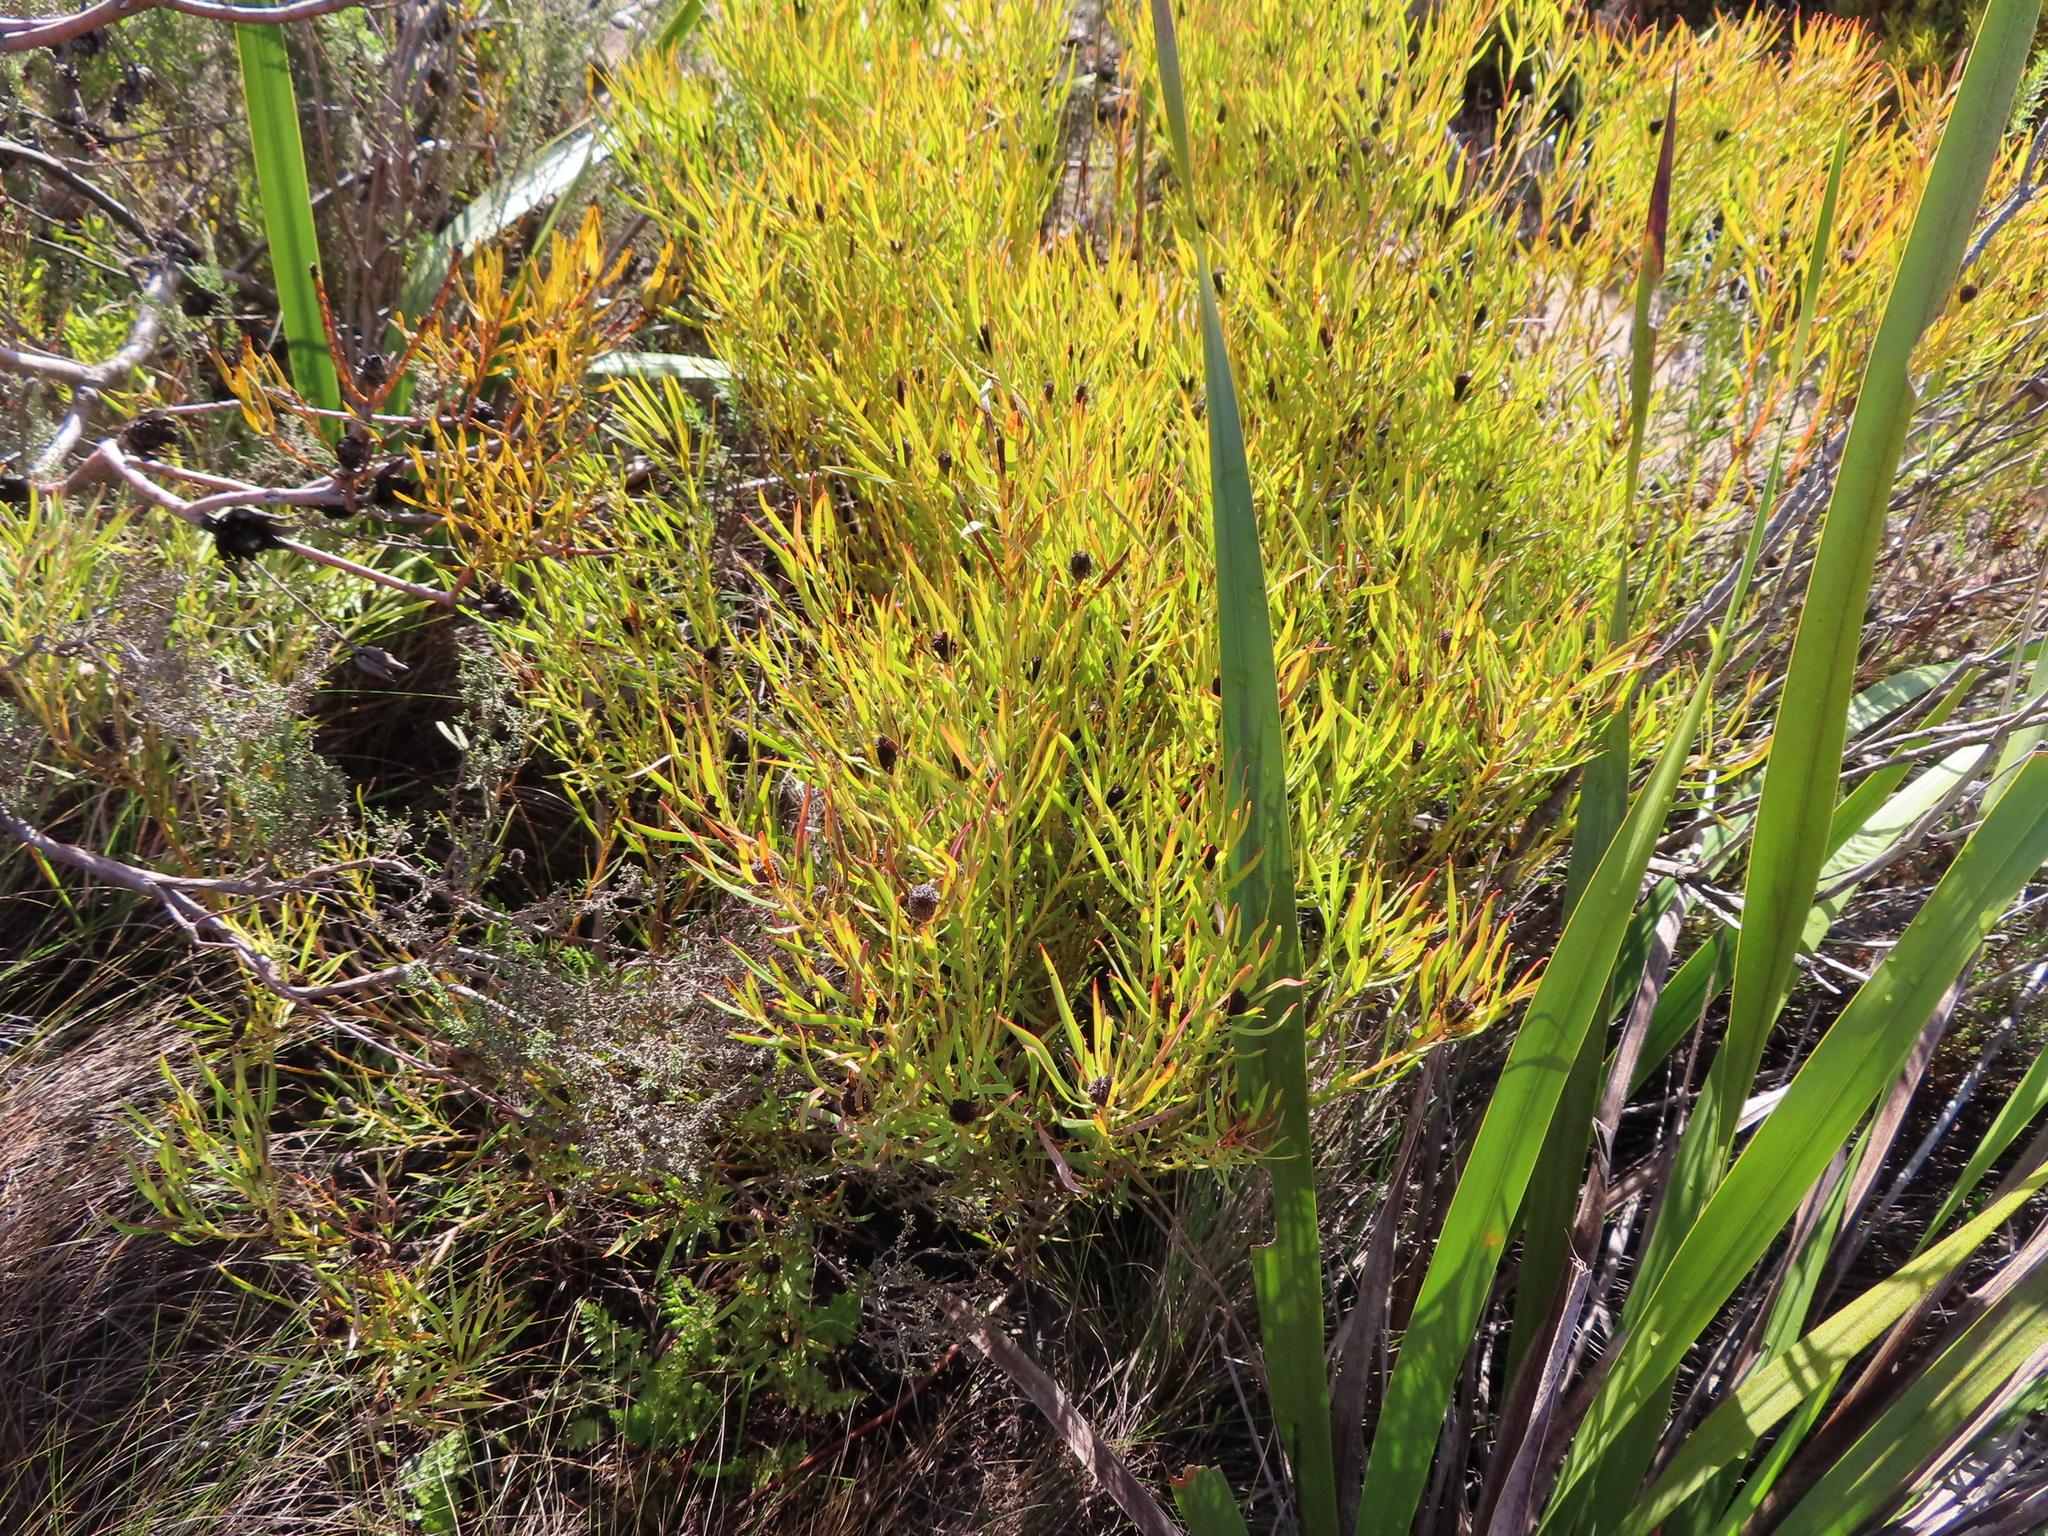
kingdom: Plantae
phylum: Tracheophyta
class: Magnoliopsida
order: Proteales
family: Proteaceae
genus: Leucadendron
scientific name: Leucadendron salignum
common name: Common sunshine conebush
